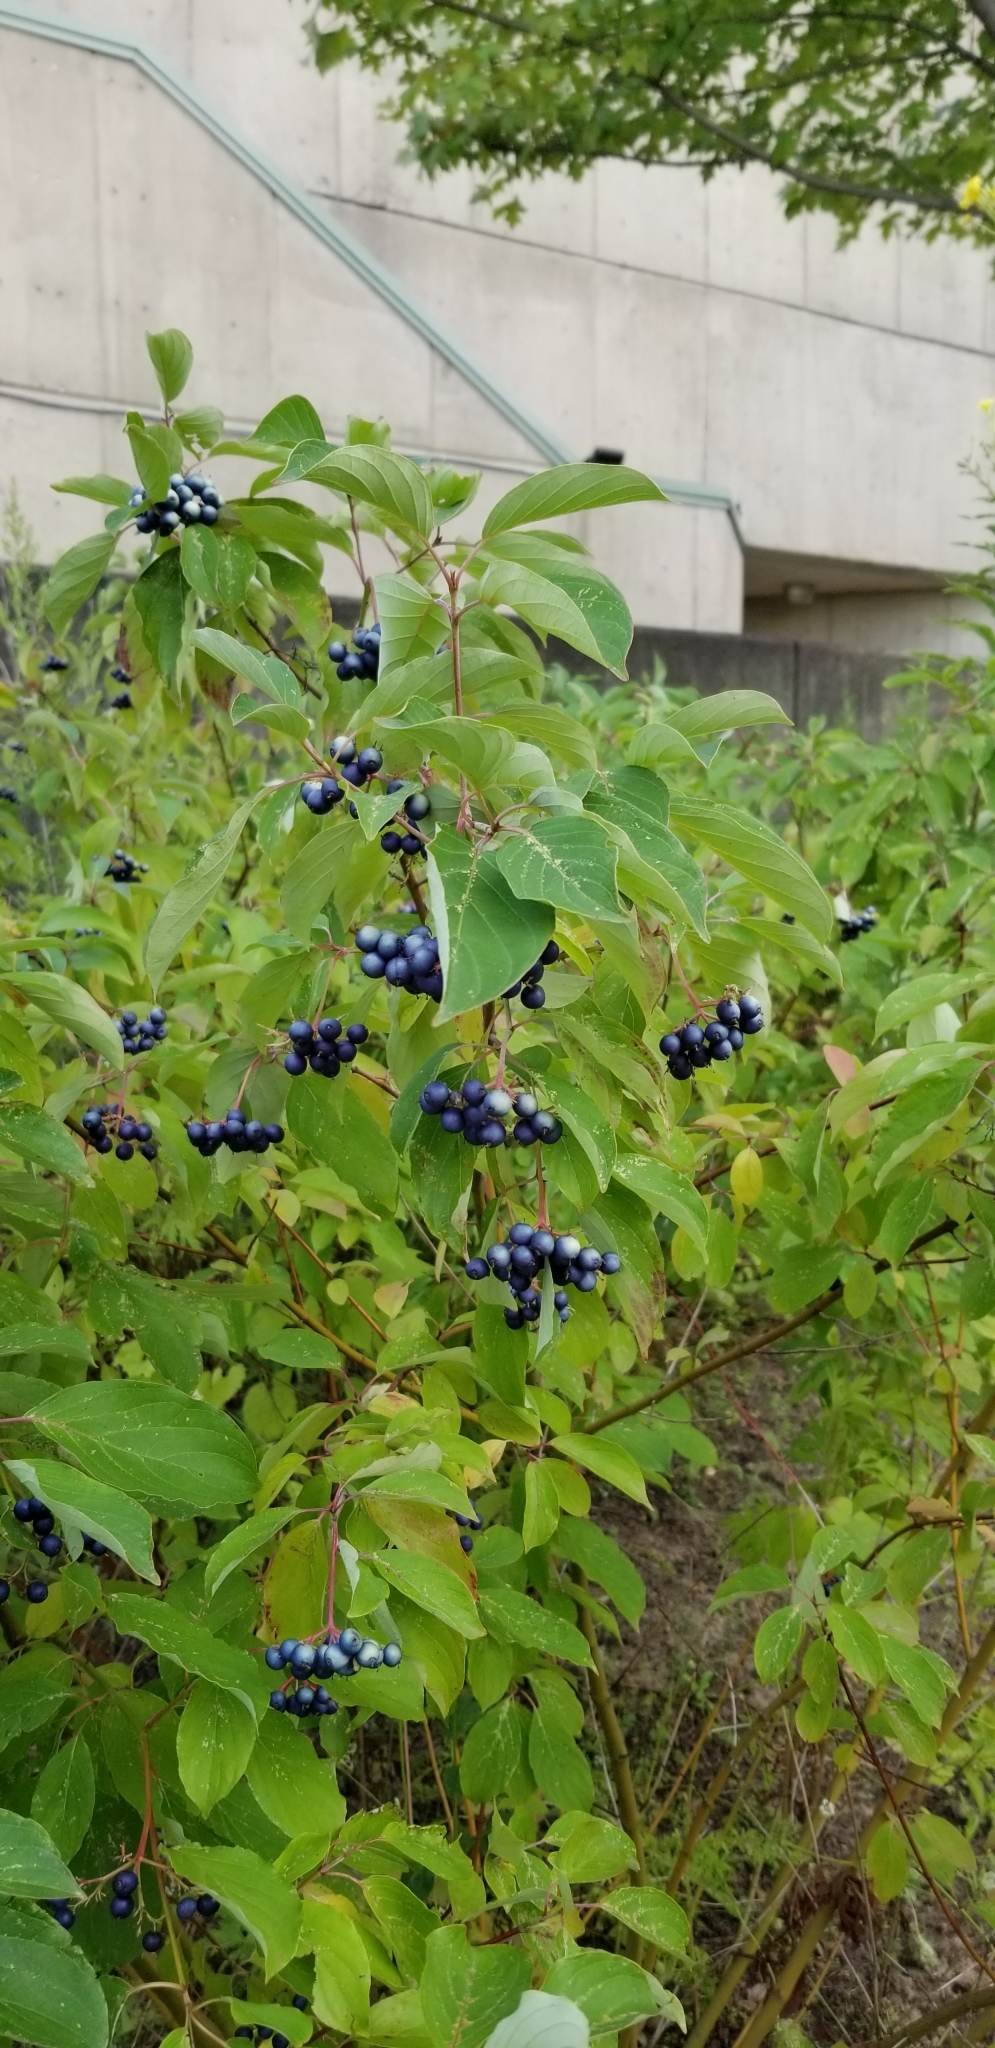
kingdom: Plantae
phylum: Tracheophyta
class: Magnoliopsida
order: Cornales
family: Cornaceae
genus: Cornus
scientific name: Cornus amomum
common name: Silky dogwood
